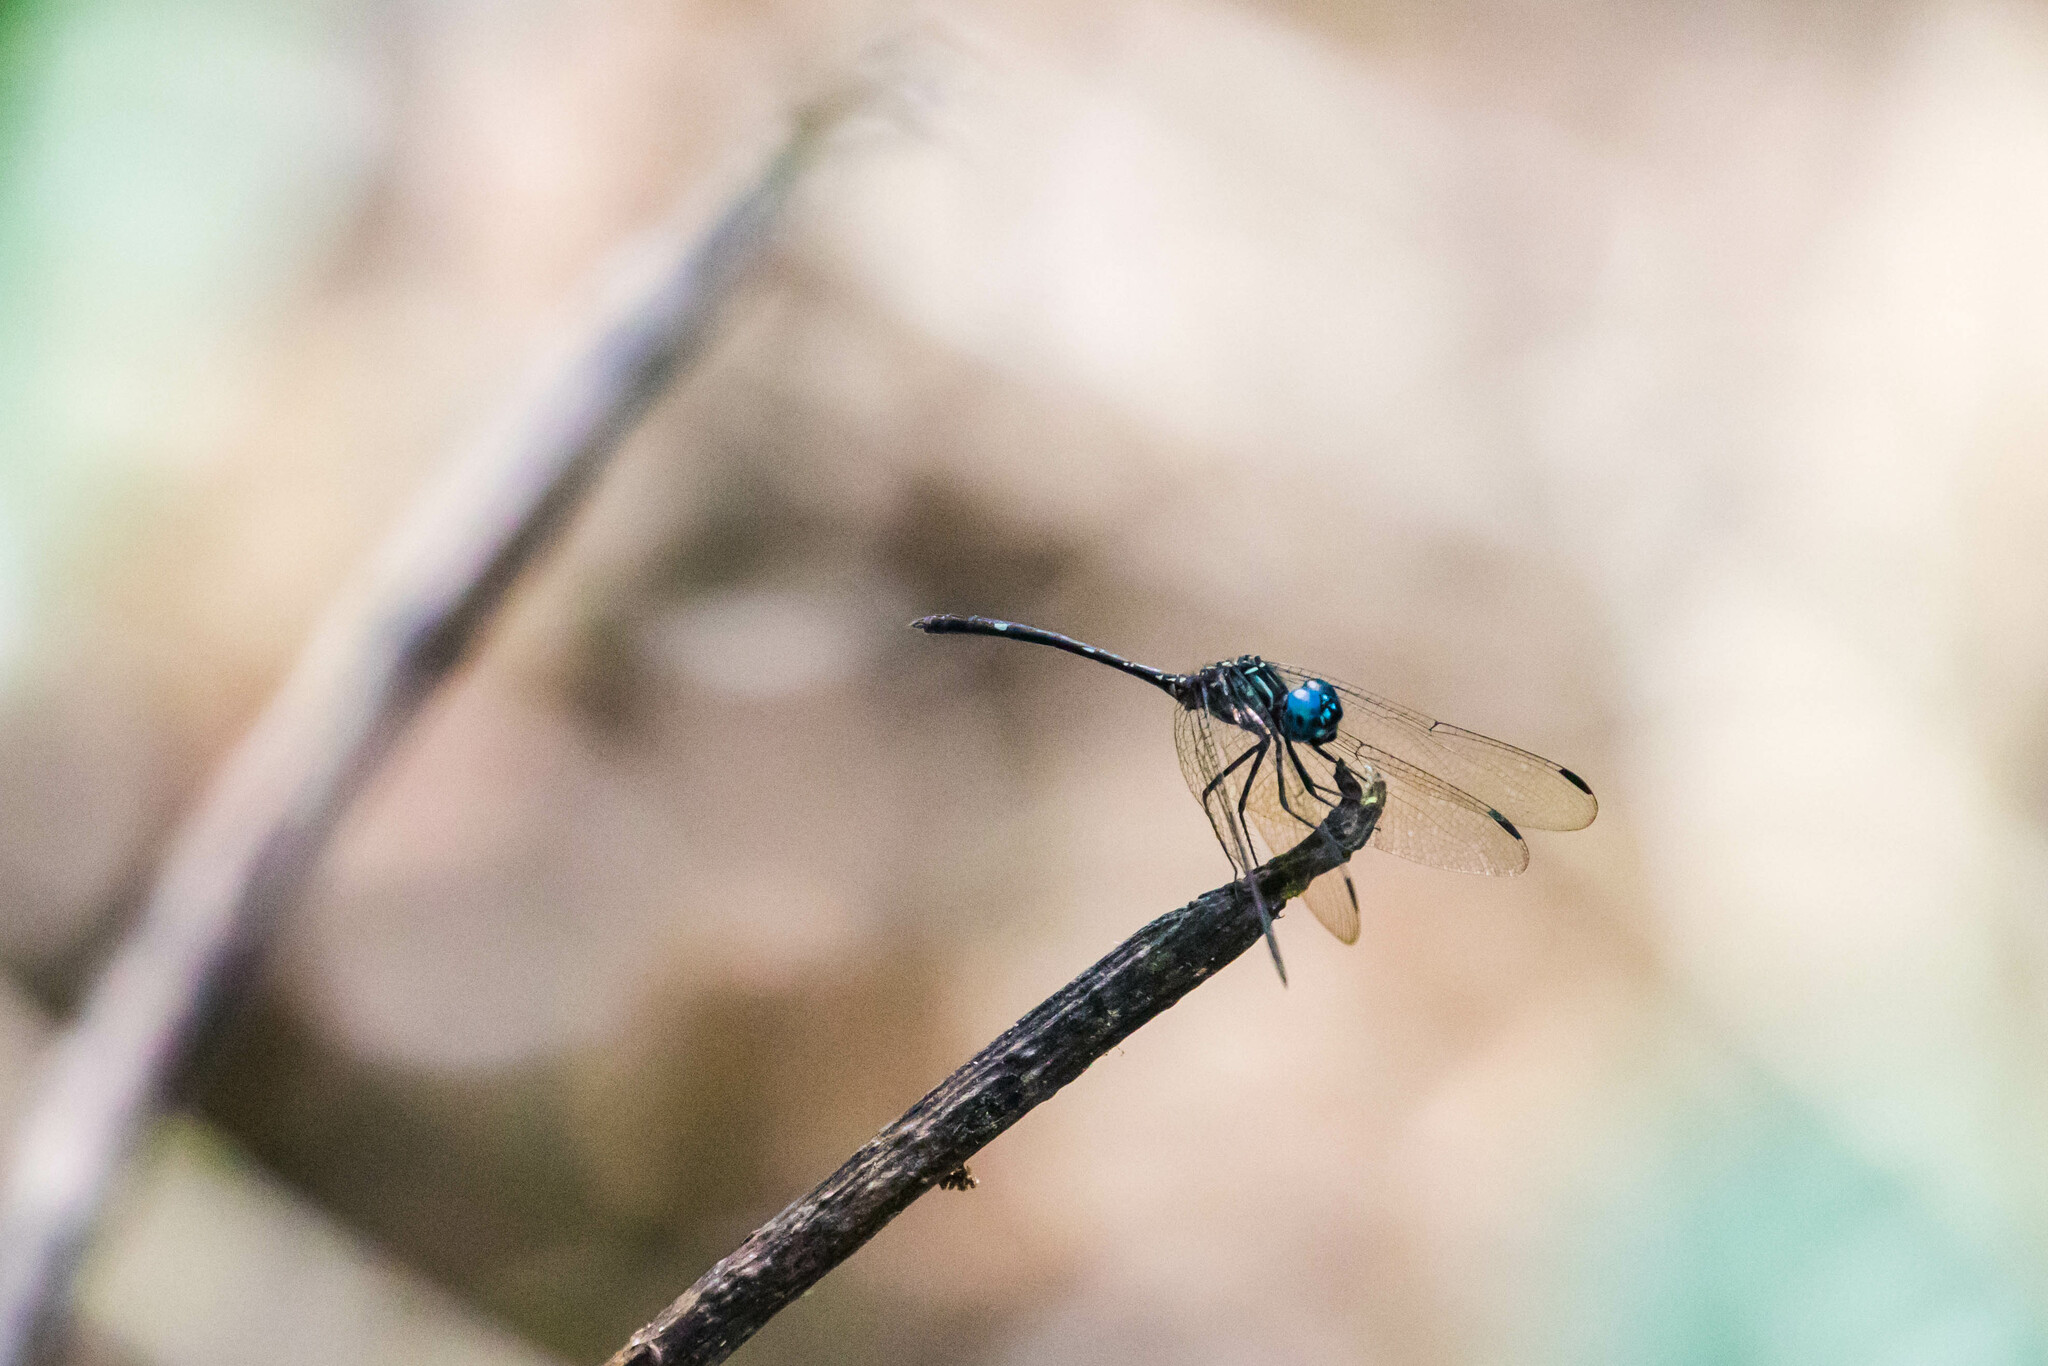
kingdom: Animalia
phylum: Arthropoda
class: Insecta
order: Odonata
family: Libellulidae
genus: Dythemis
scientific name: Dythemis nigra
